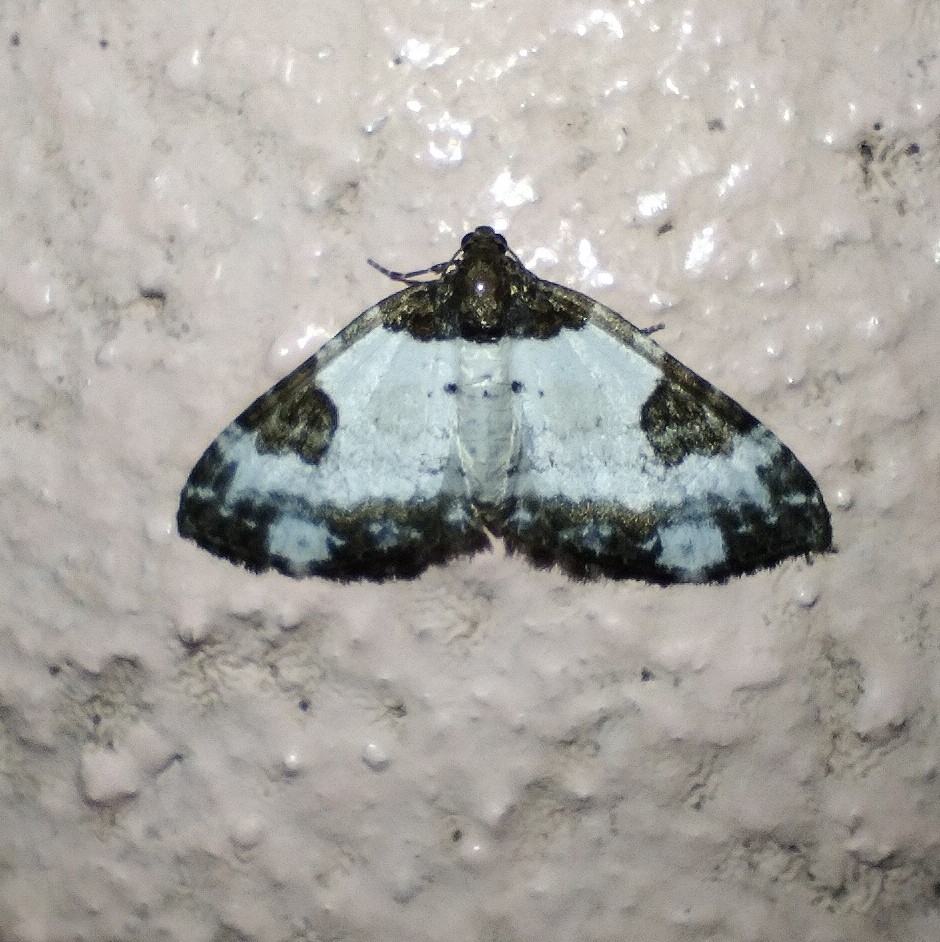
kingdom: Animalia
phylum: Arthropoda
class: Insecta
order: Lepidoptera
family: Geometridae
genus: Melanthia
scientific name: Melanthia procellata
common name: Pretty chalk carpet
